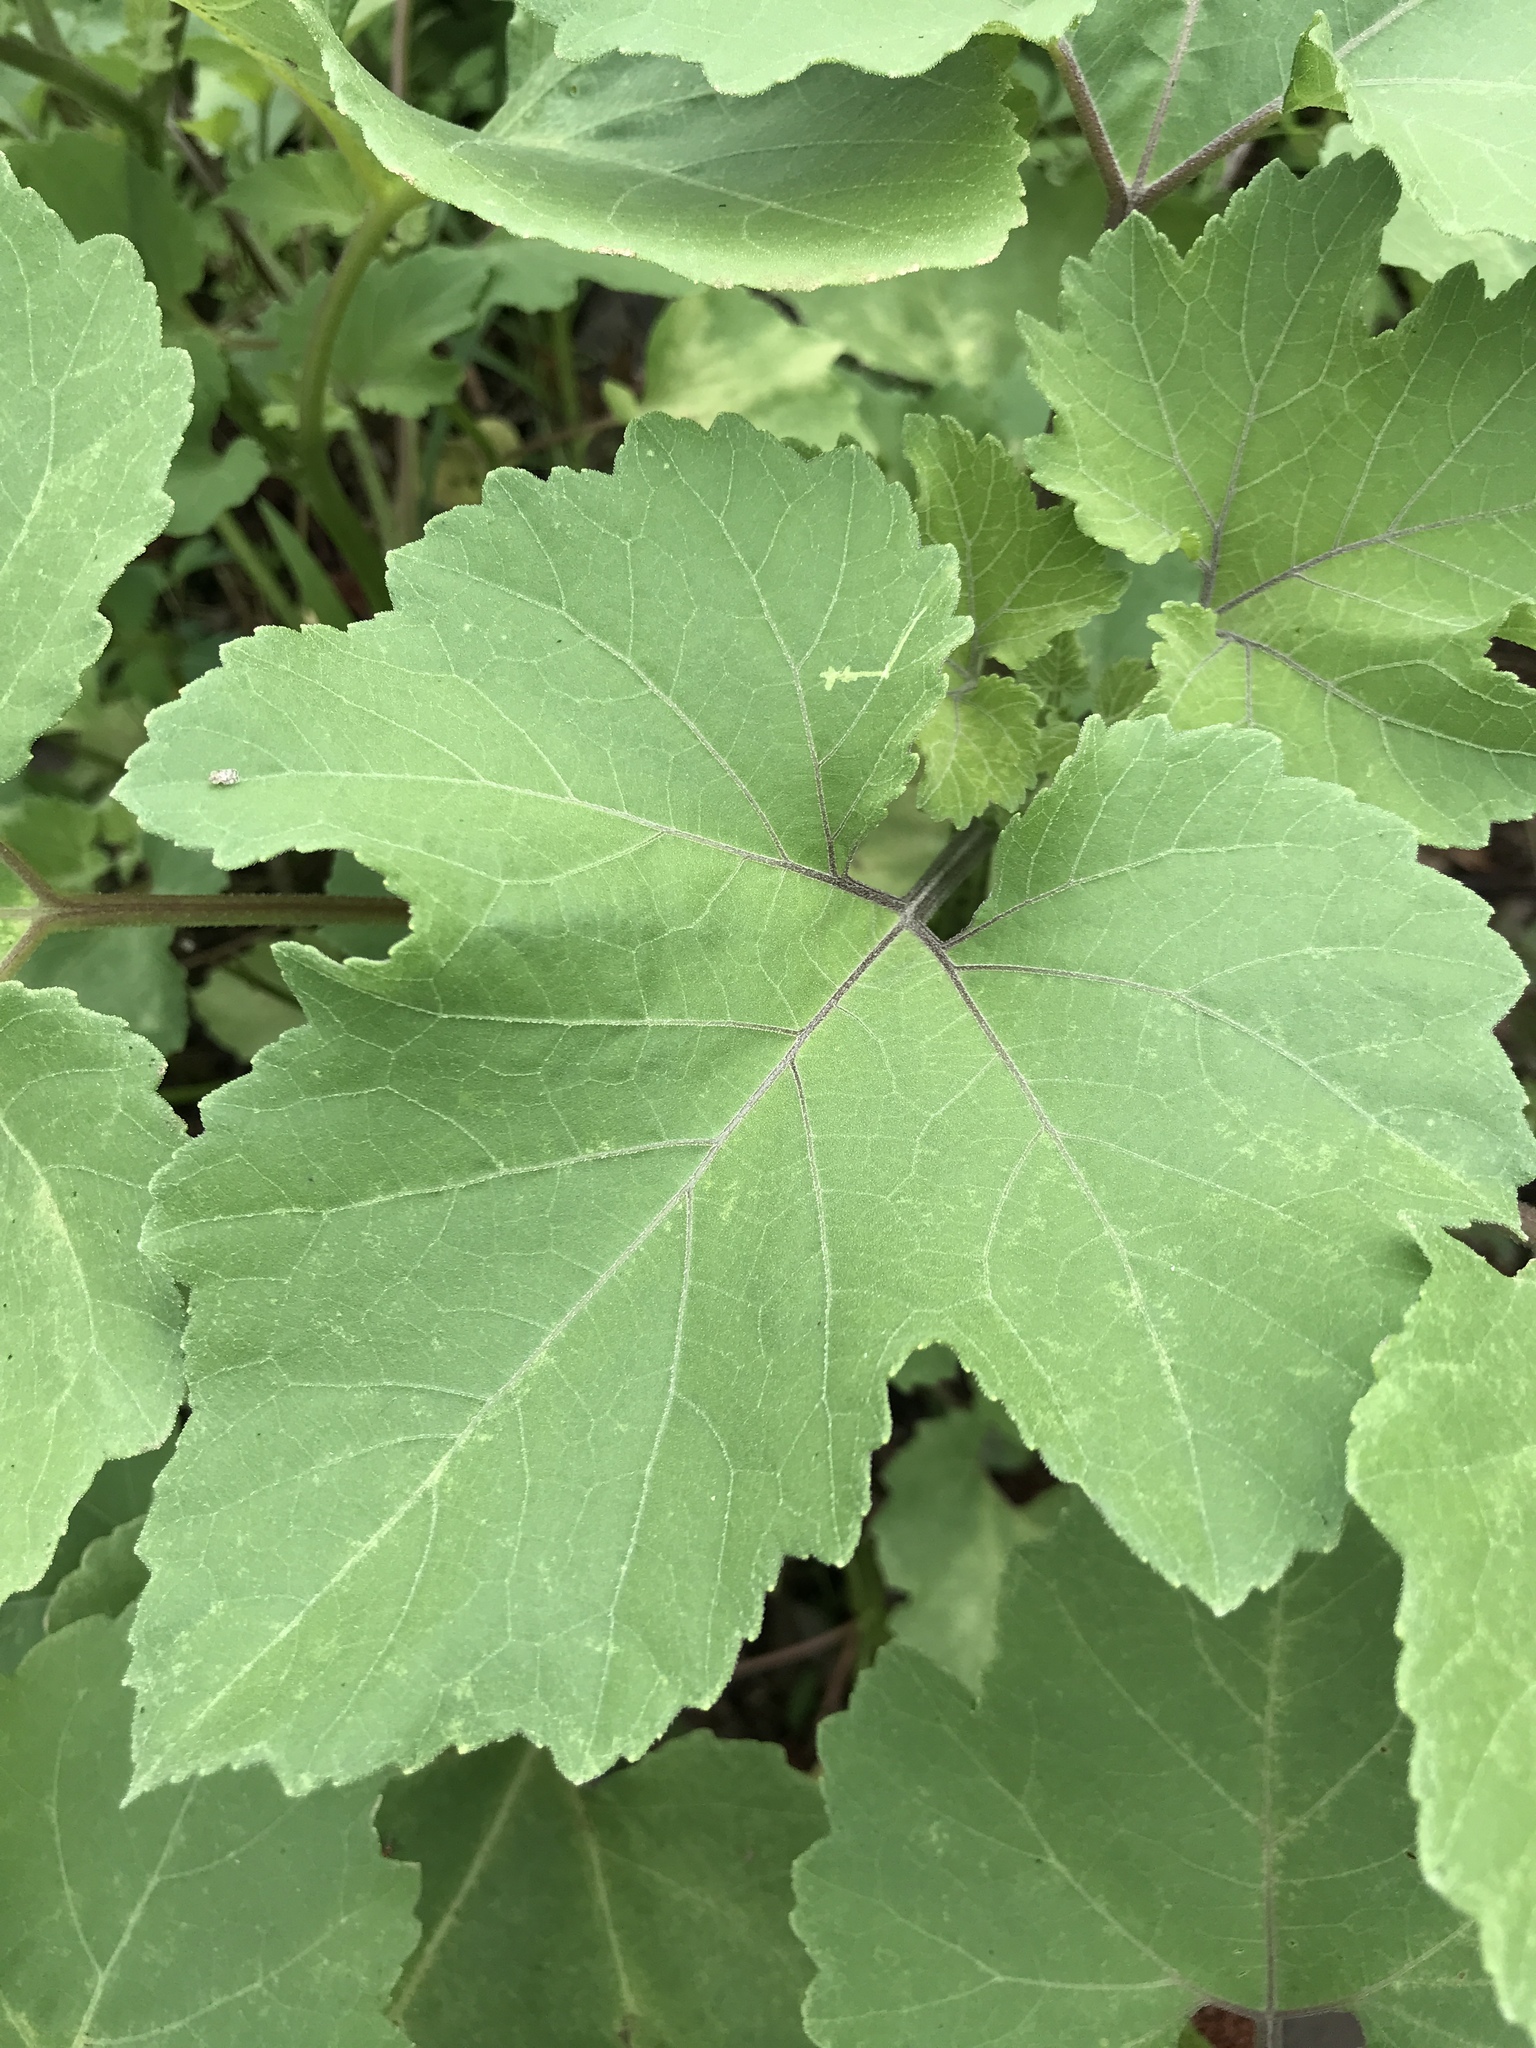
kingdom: Plantae
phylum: Tracheophyta
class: Magnoliopsida
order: Asterales
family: Asteraceae
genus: Xanthium
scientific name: Xanthium strumarium
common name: Rough cocklebur
